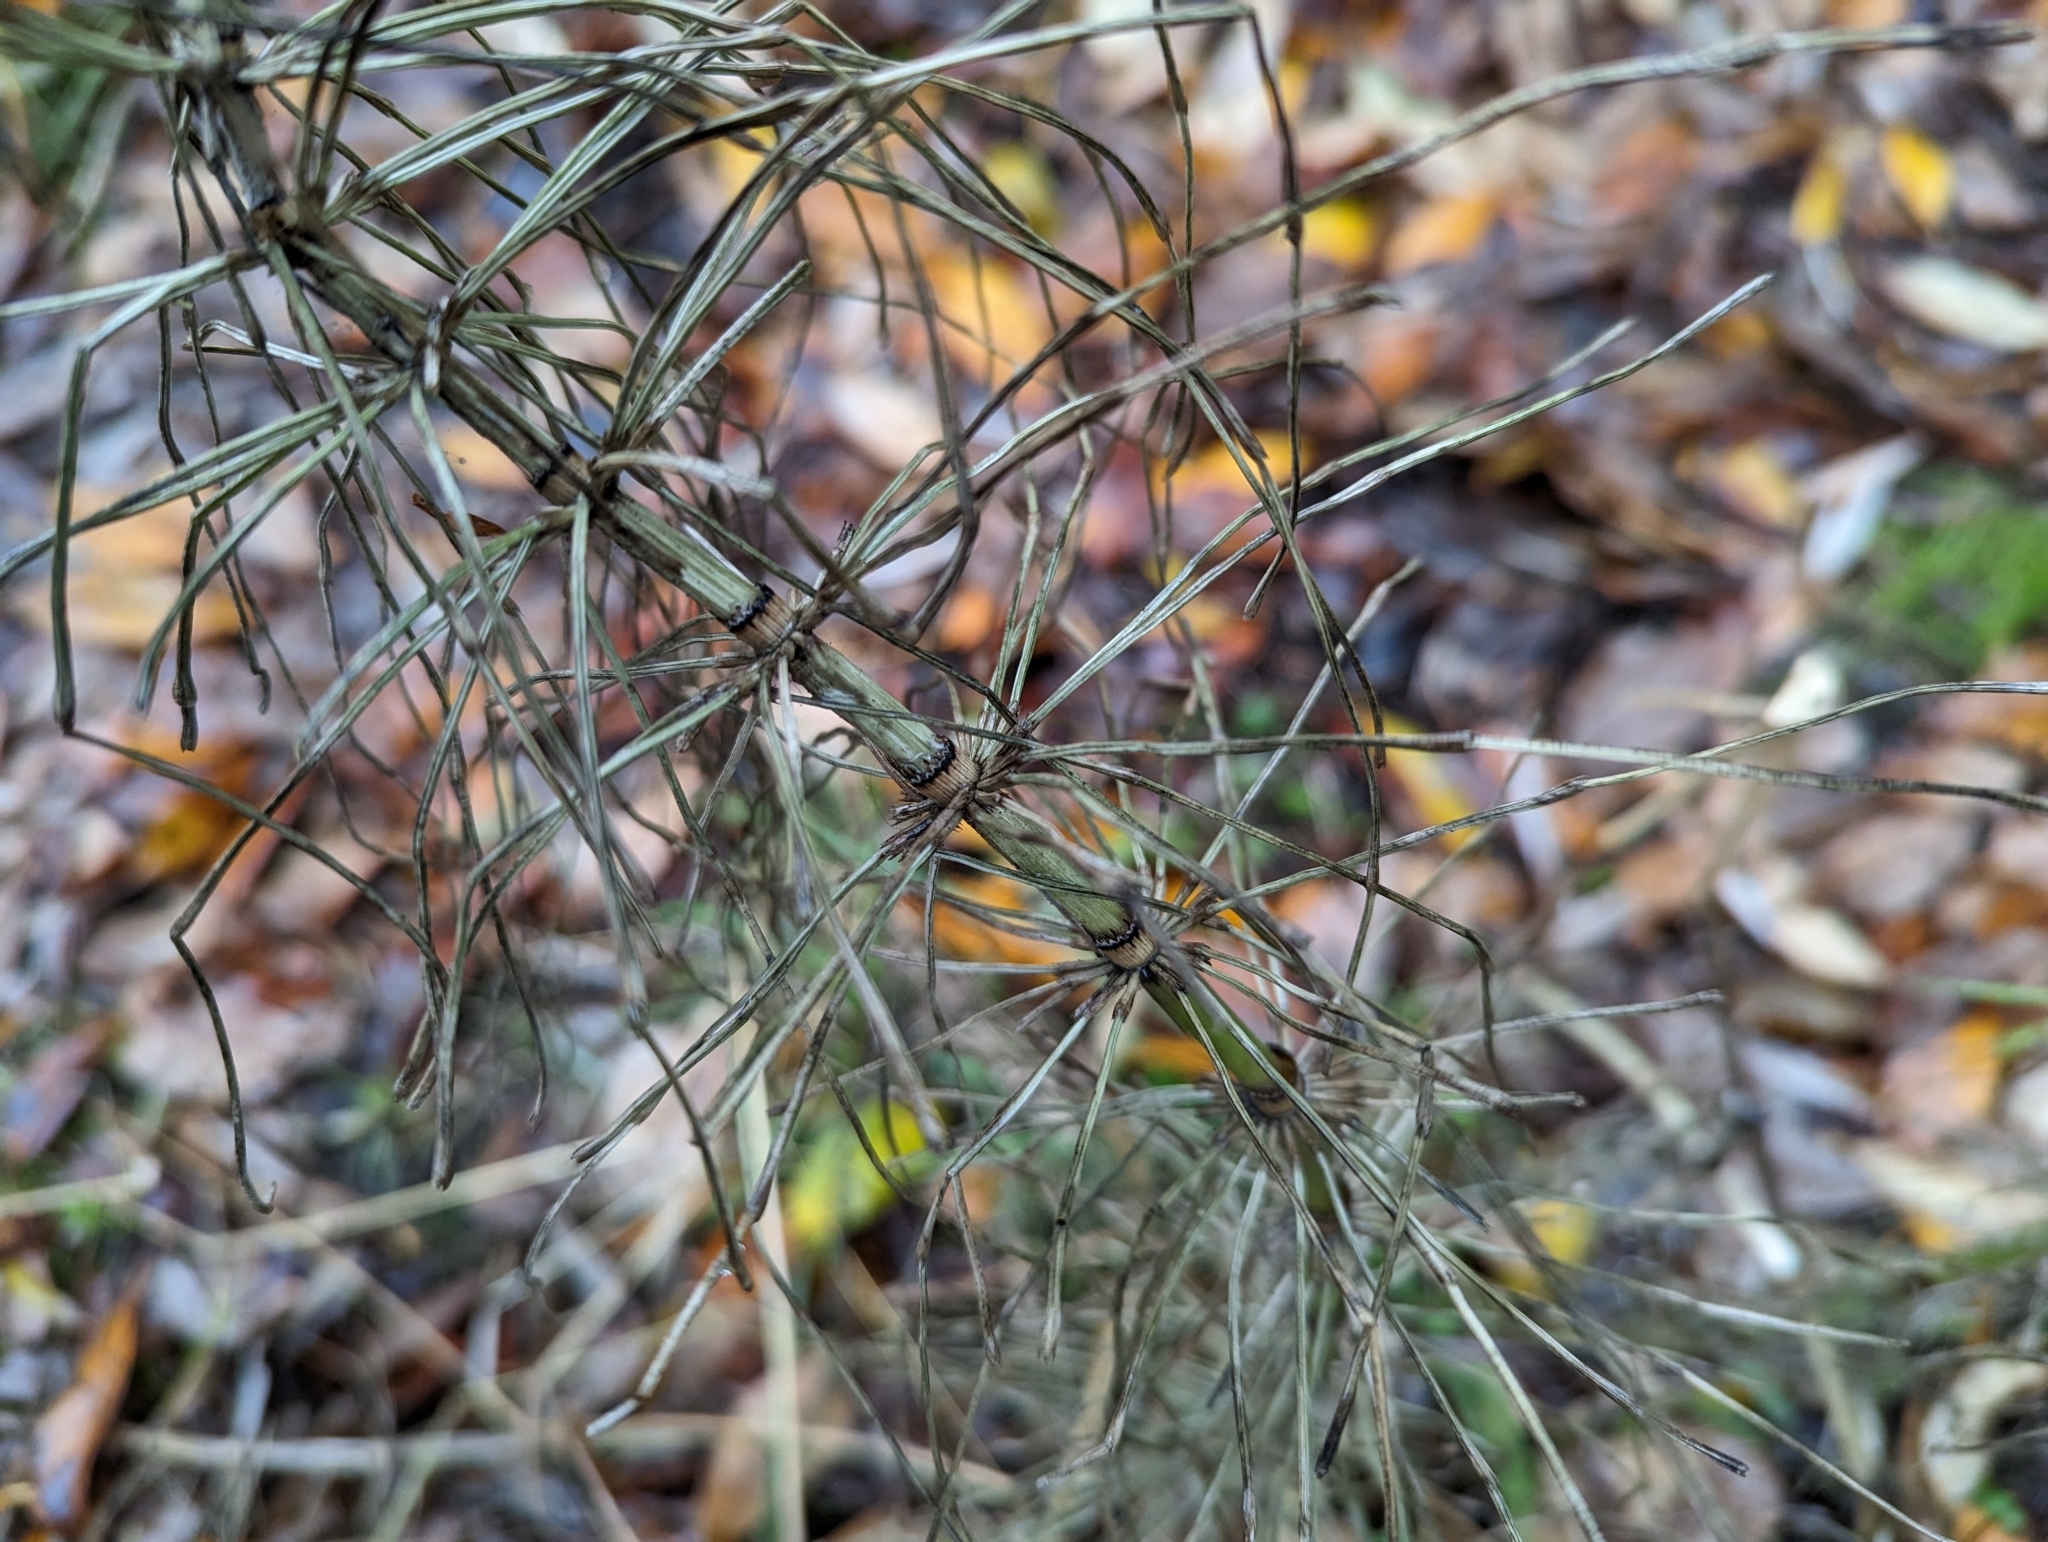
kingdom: Plantae
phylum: Tracheophyta
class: Polypodiopsida
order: Equisetales
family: Equisetaceae
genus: Equisetum
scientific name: Equisetum braunii
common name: Braun's horsetail
